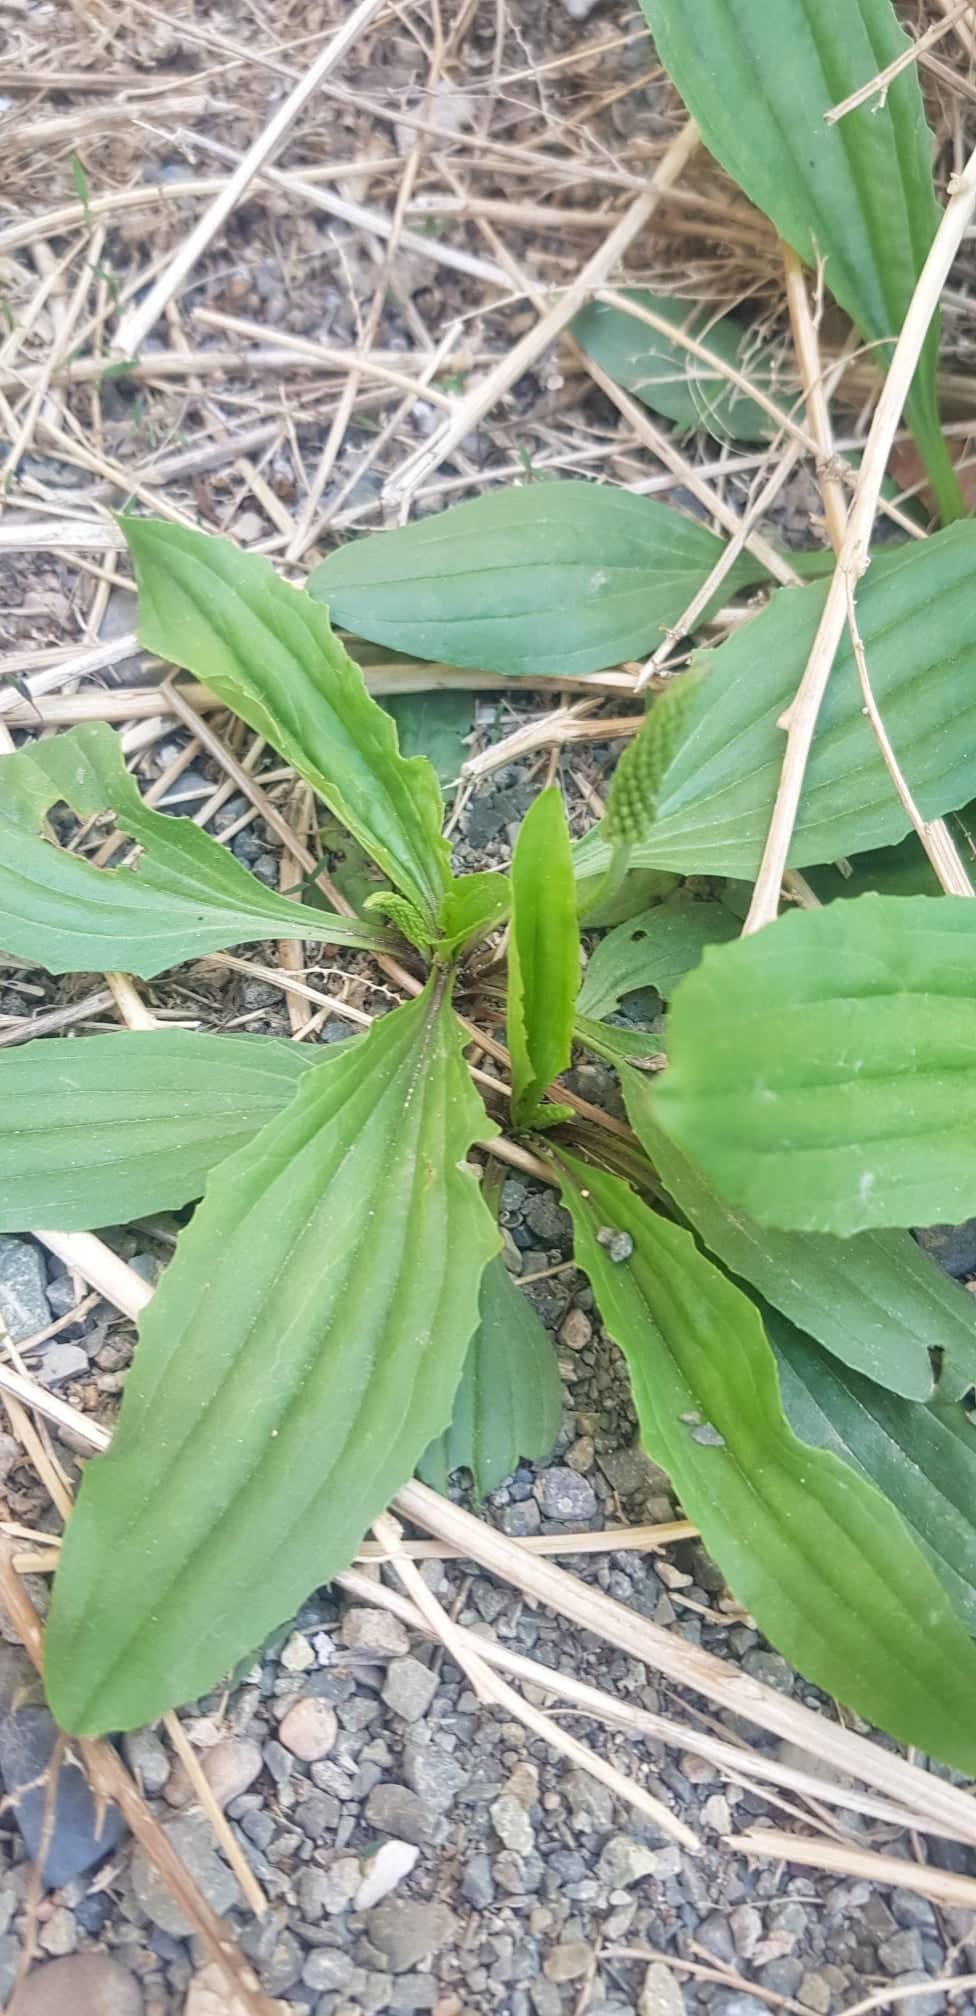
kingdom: Plantae
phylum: Tracheophyta
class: Magnoliopsida
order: Lamiales
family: Plantaginaceae
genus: Plantago
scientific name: Plantago depressa
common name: Depressed plantain
